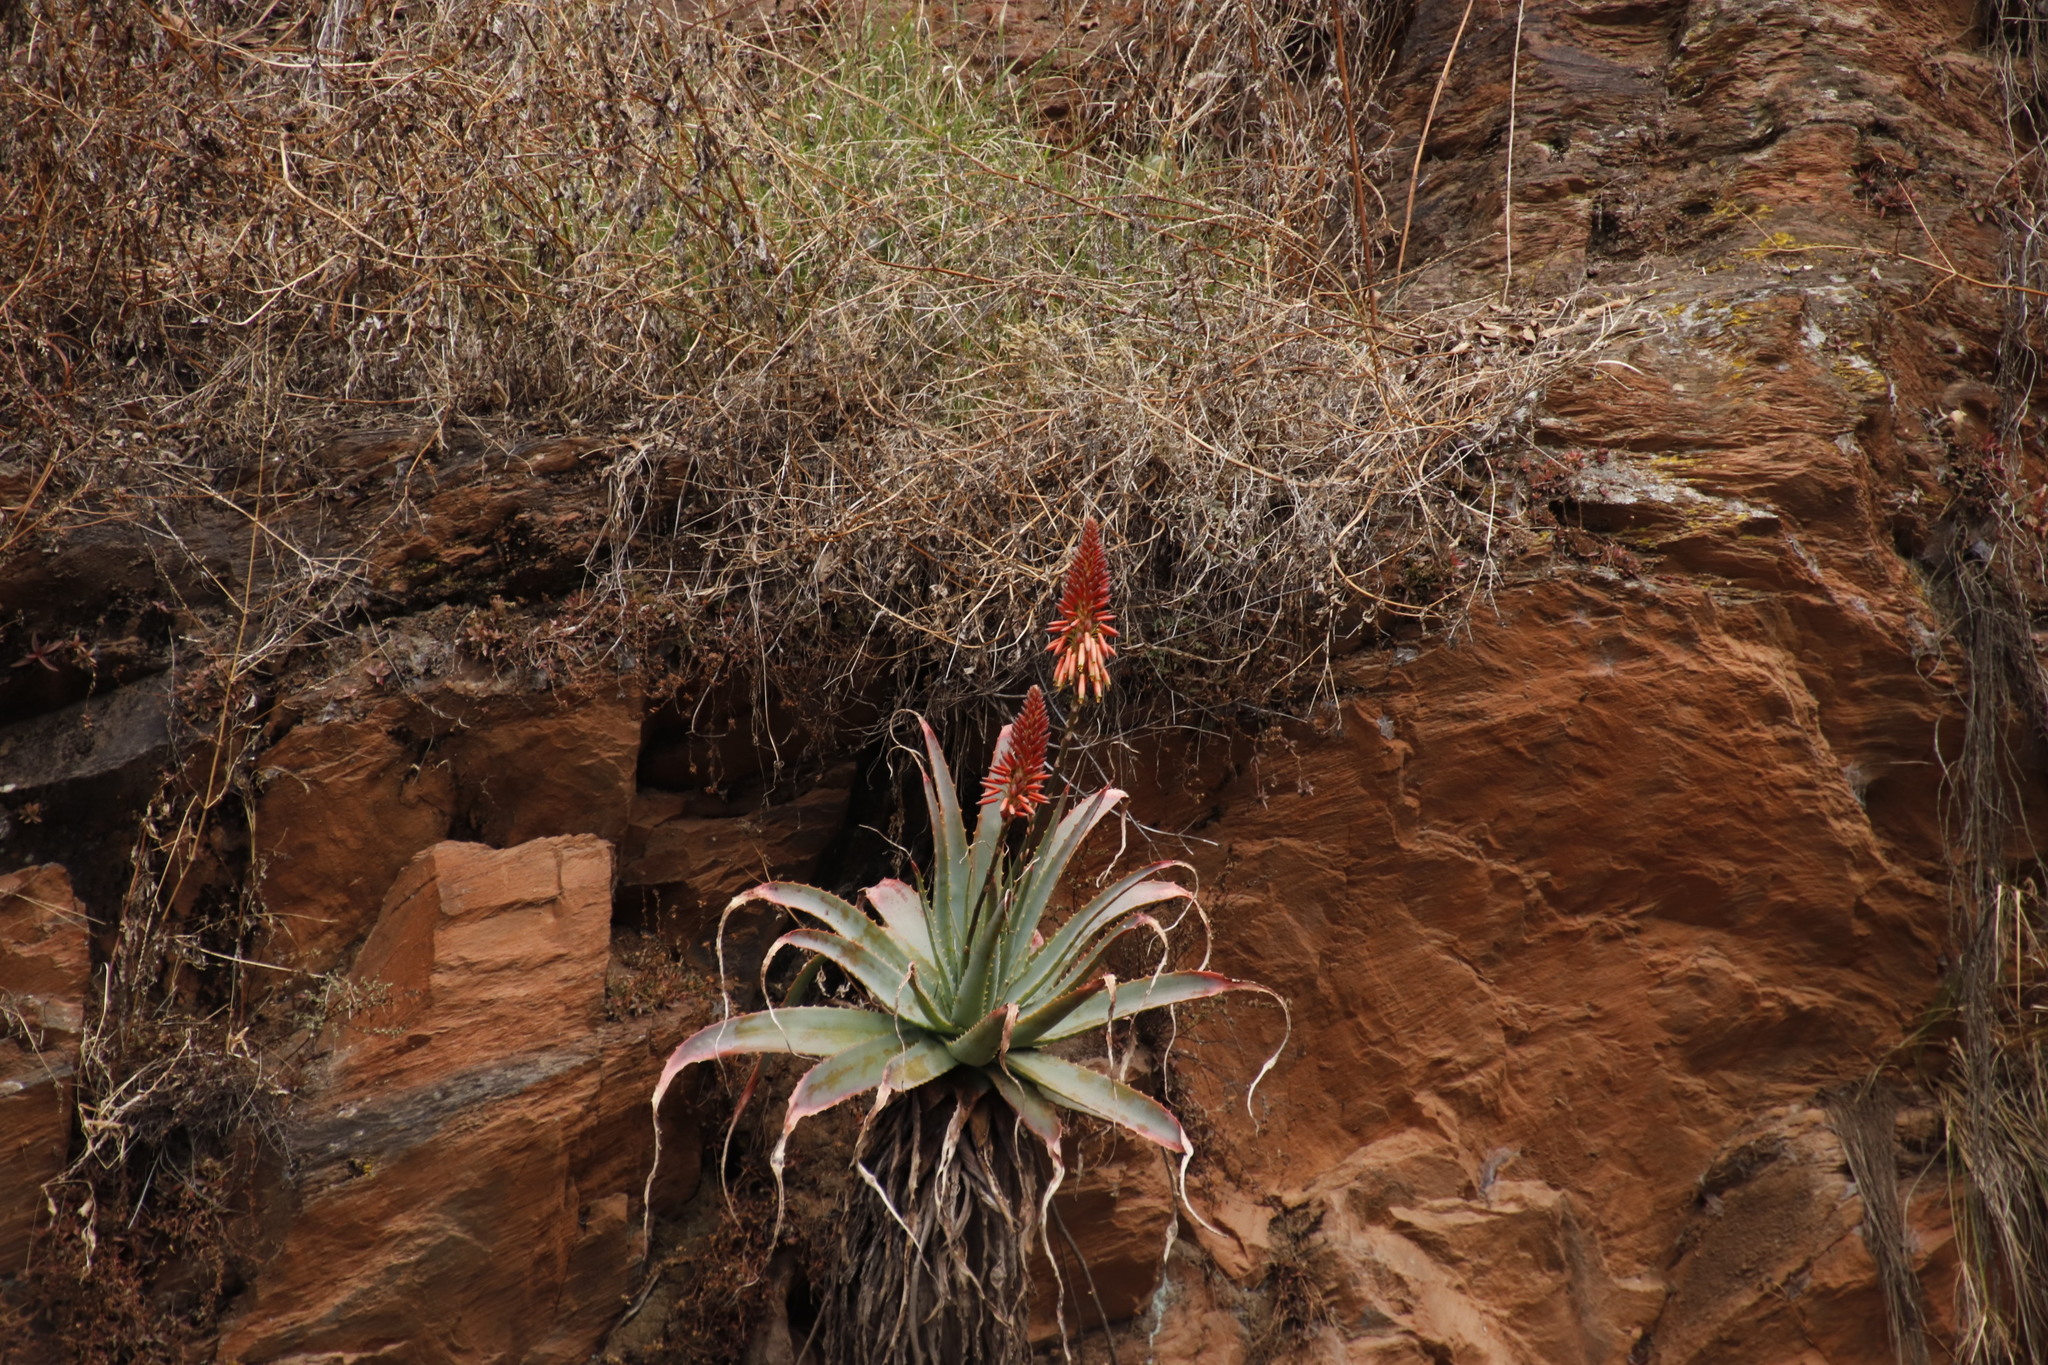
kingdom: Plantae
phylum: Tracheophyta
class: Liliopsida
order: Asparagales
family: Asphodelaceae
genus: Aloe
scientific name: Aloe mutabilis
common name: Blue krantz aloe
